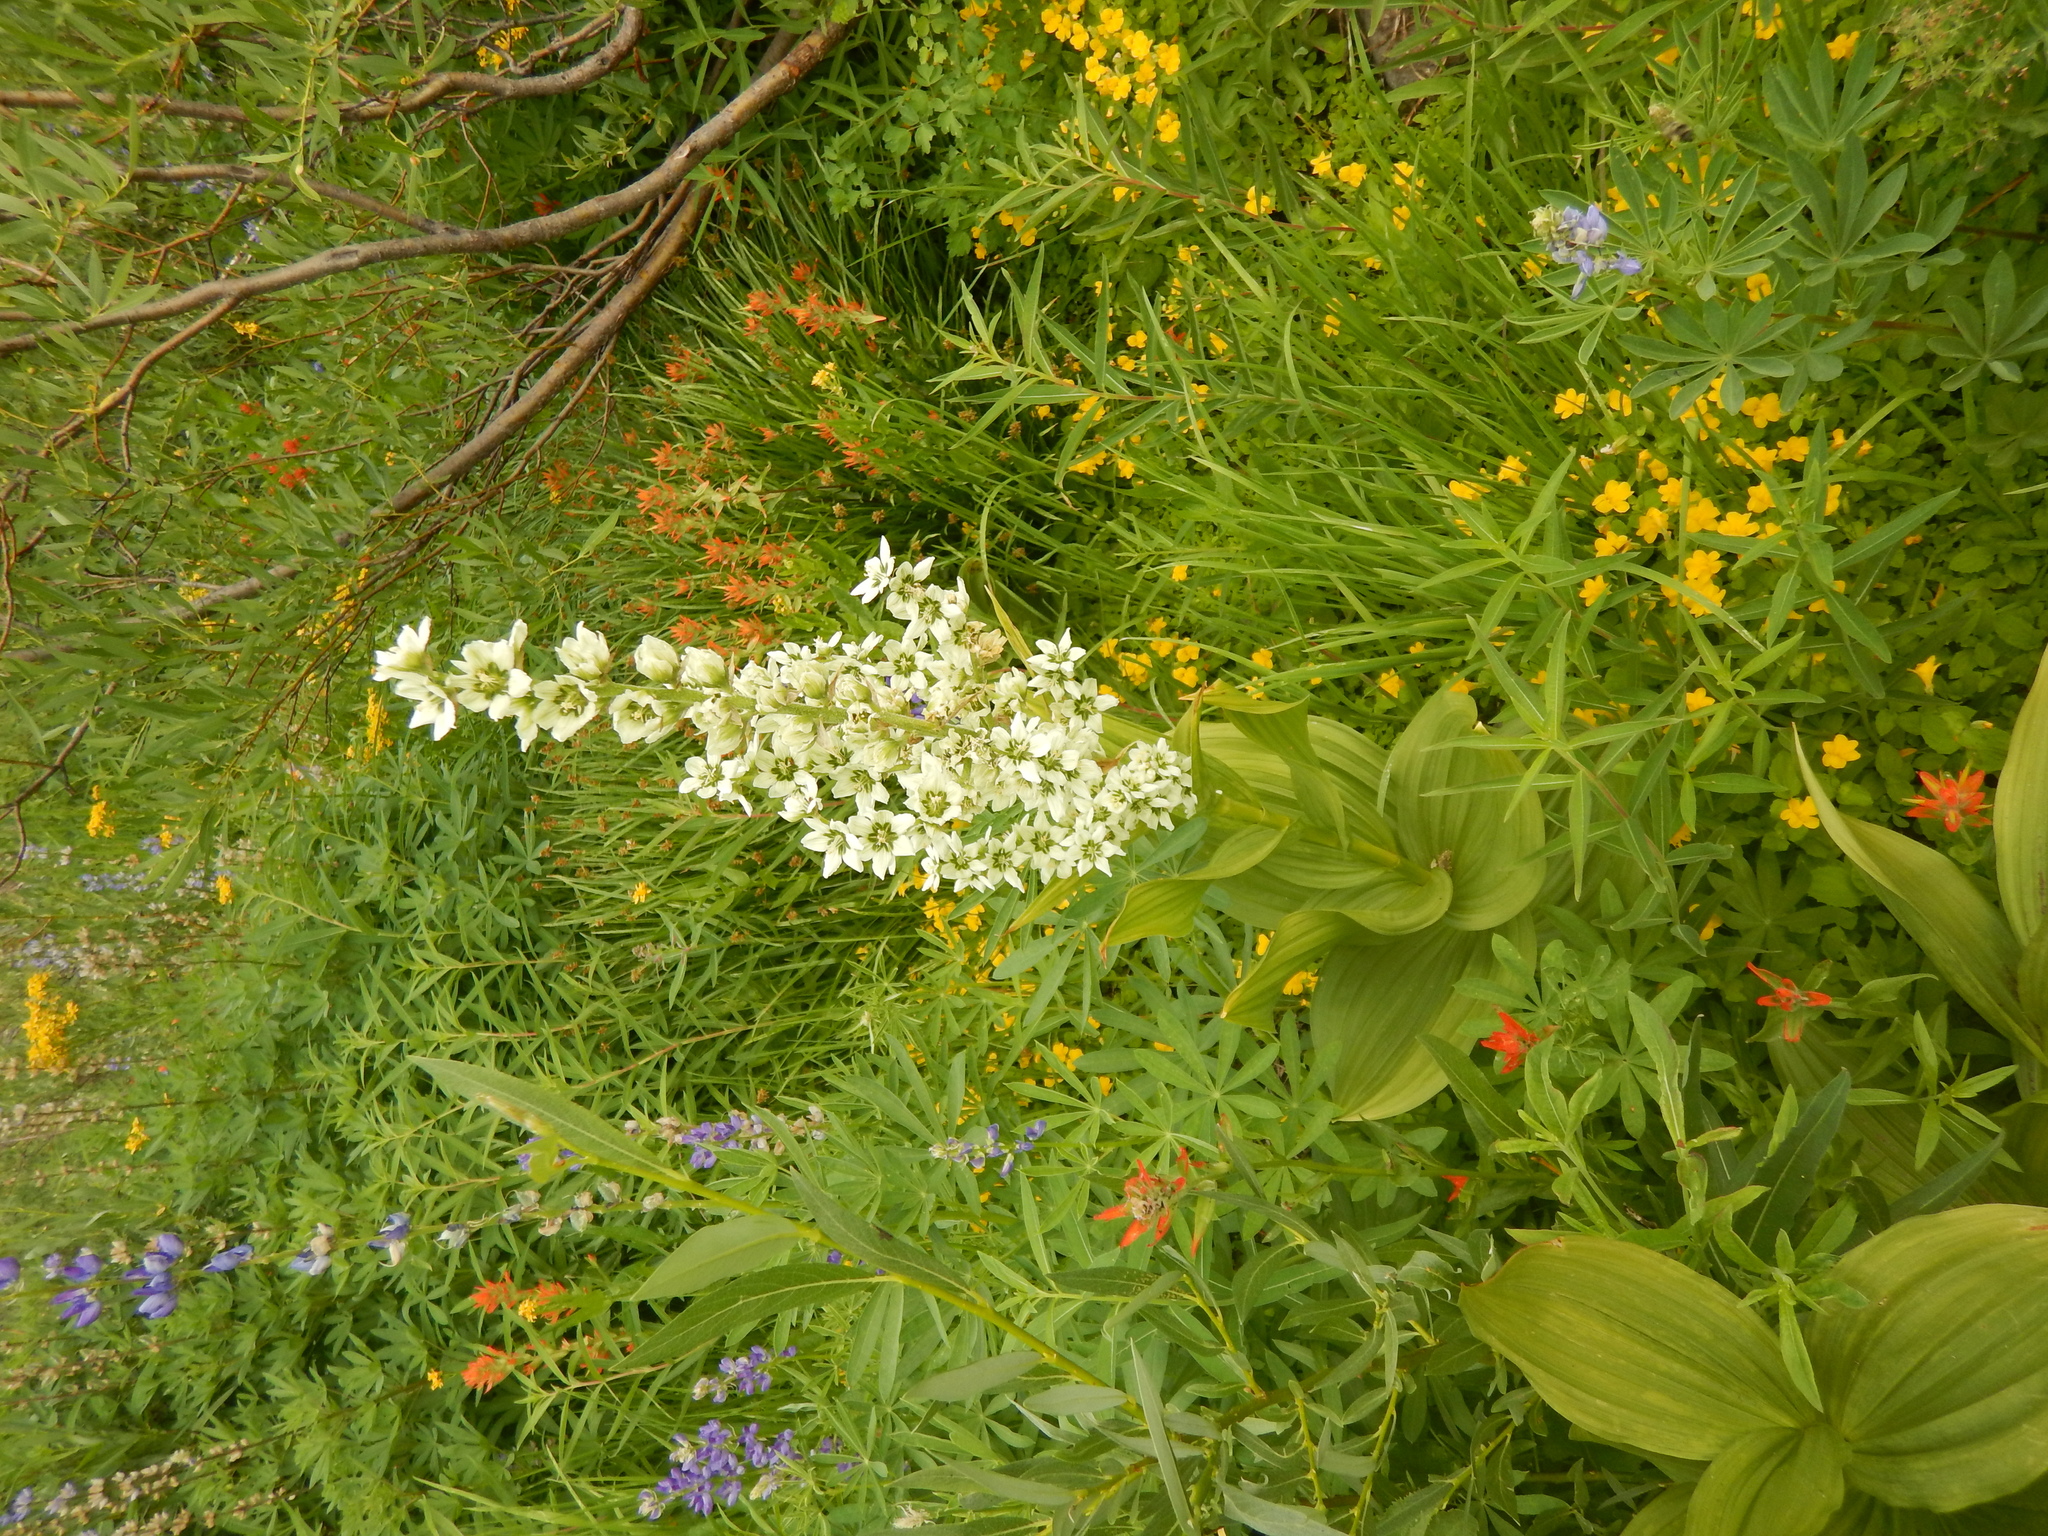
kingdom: Plantae
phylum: Tracheophyta
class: Liliopsida
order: Liliales
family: Melanthiaceae
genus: Veratrum
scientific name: Veratrum californicum
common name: California veratrum
